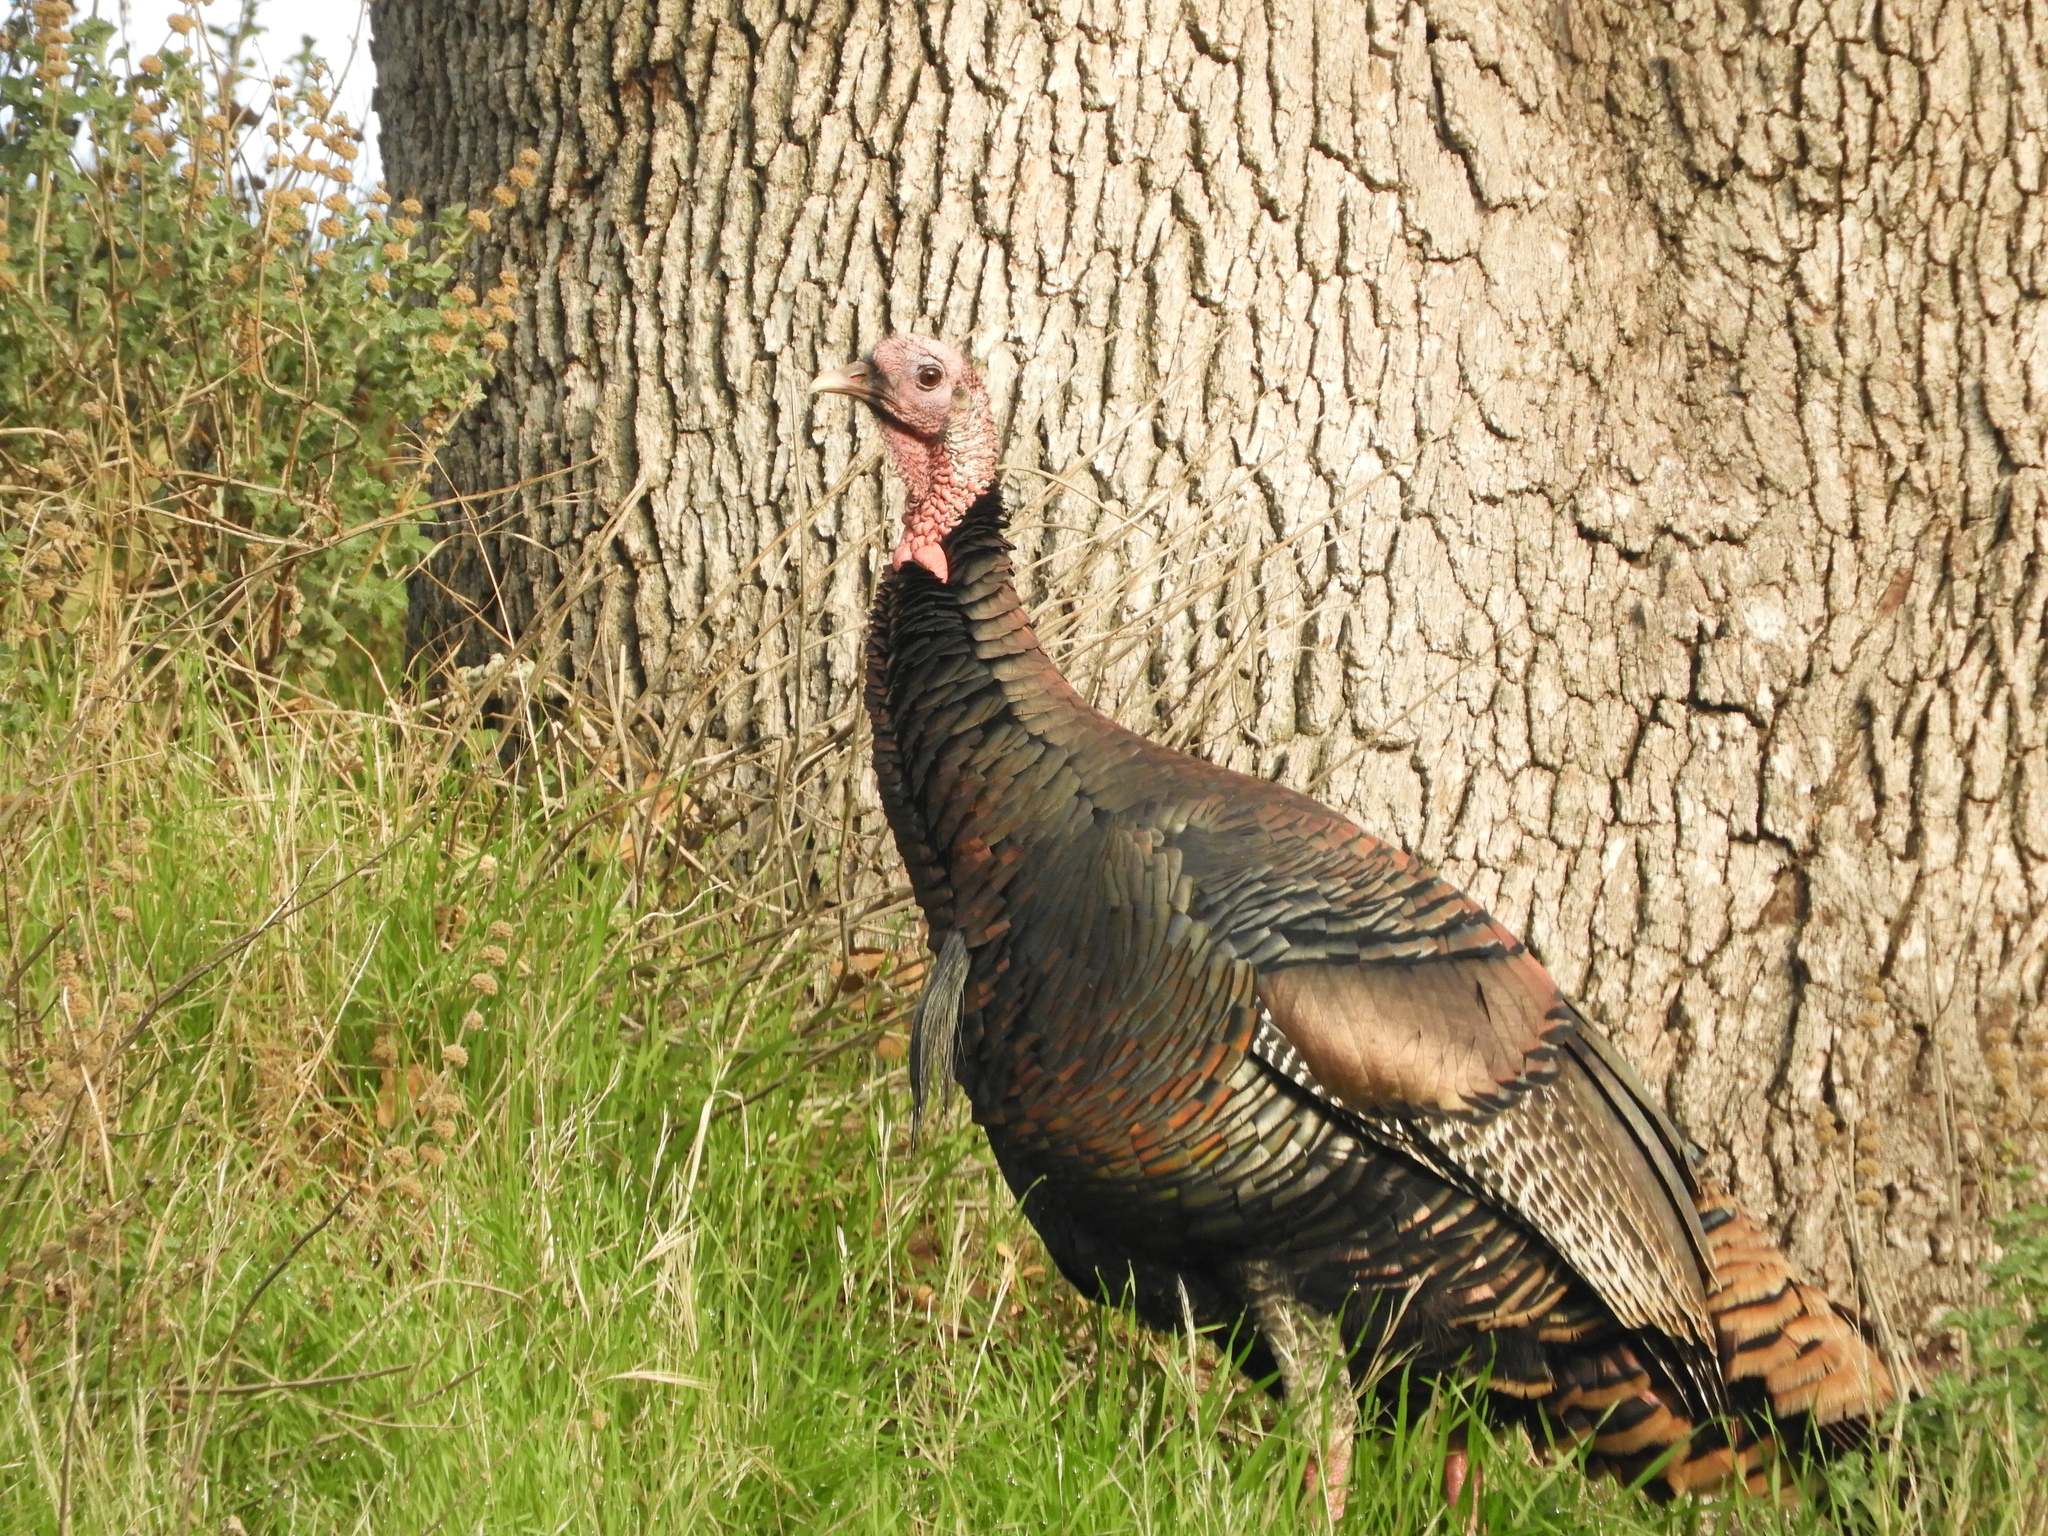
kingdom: Animalia
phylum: Chordata
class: Aves
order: Galliformes
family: Phasianidae
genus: Meleagris
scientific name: Meleagris gallopavo
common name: Wild turkey
